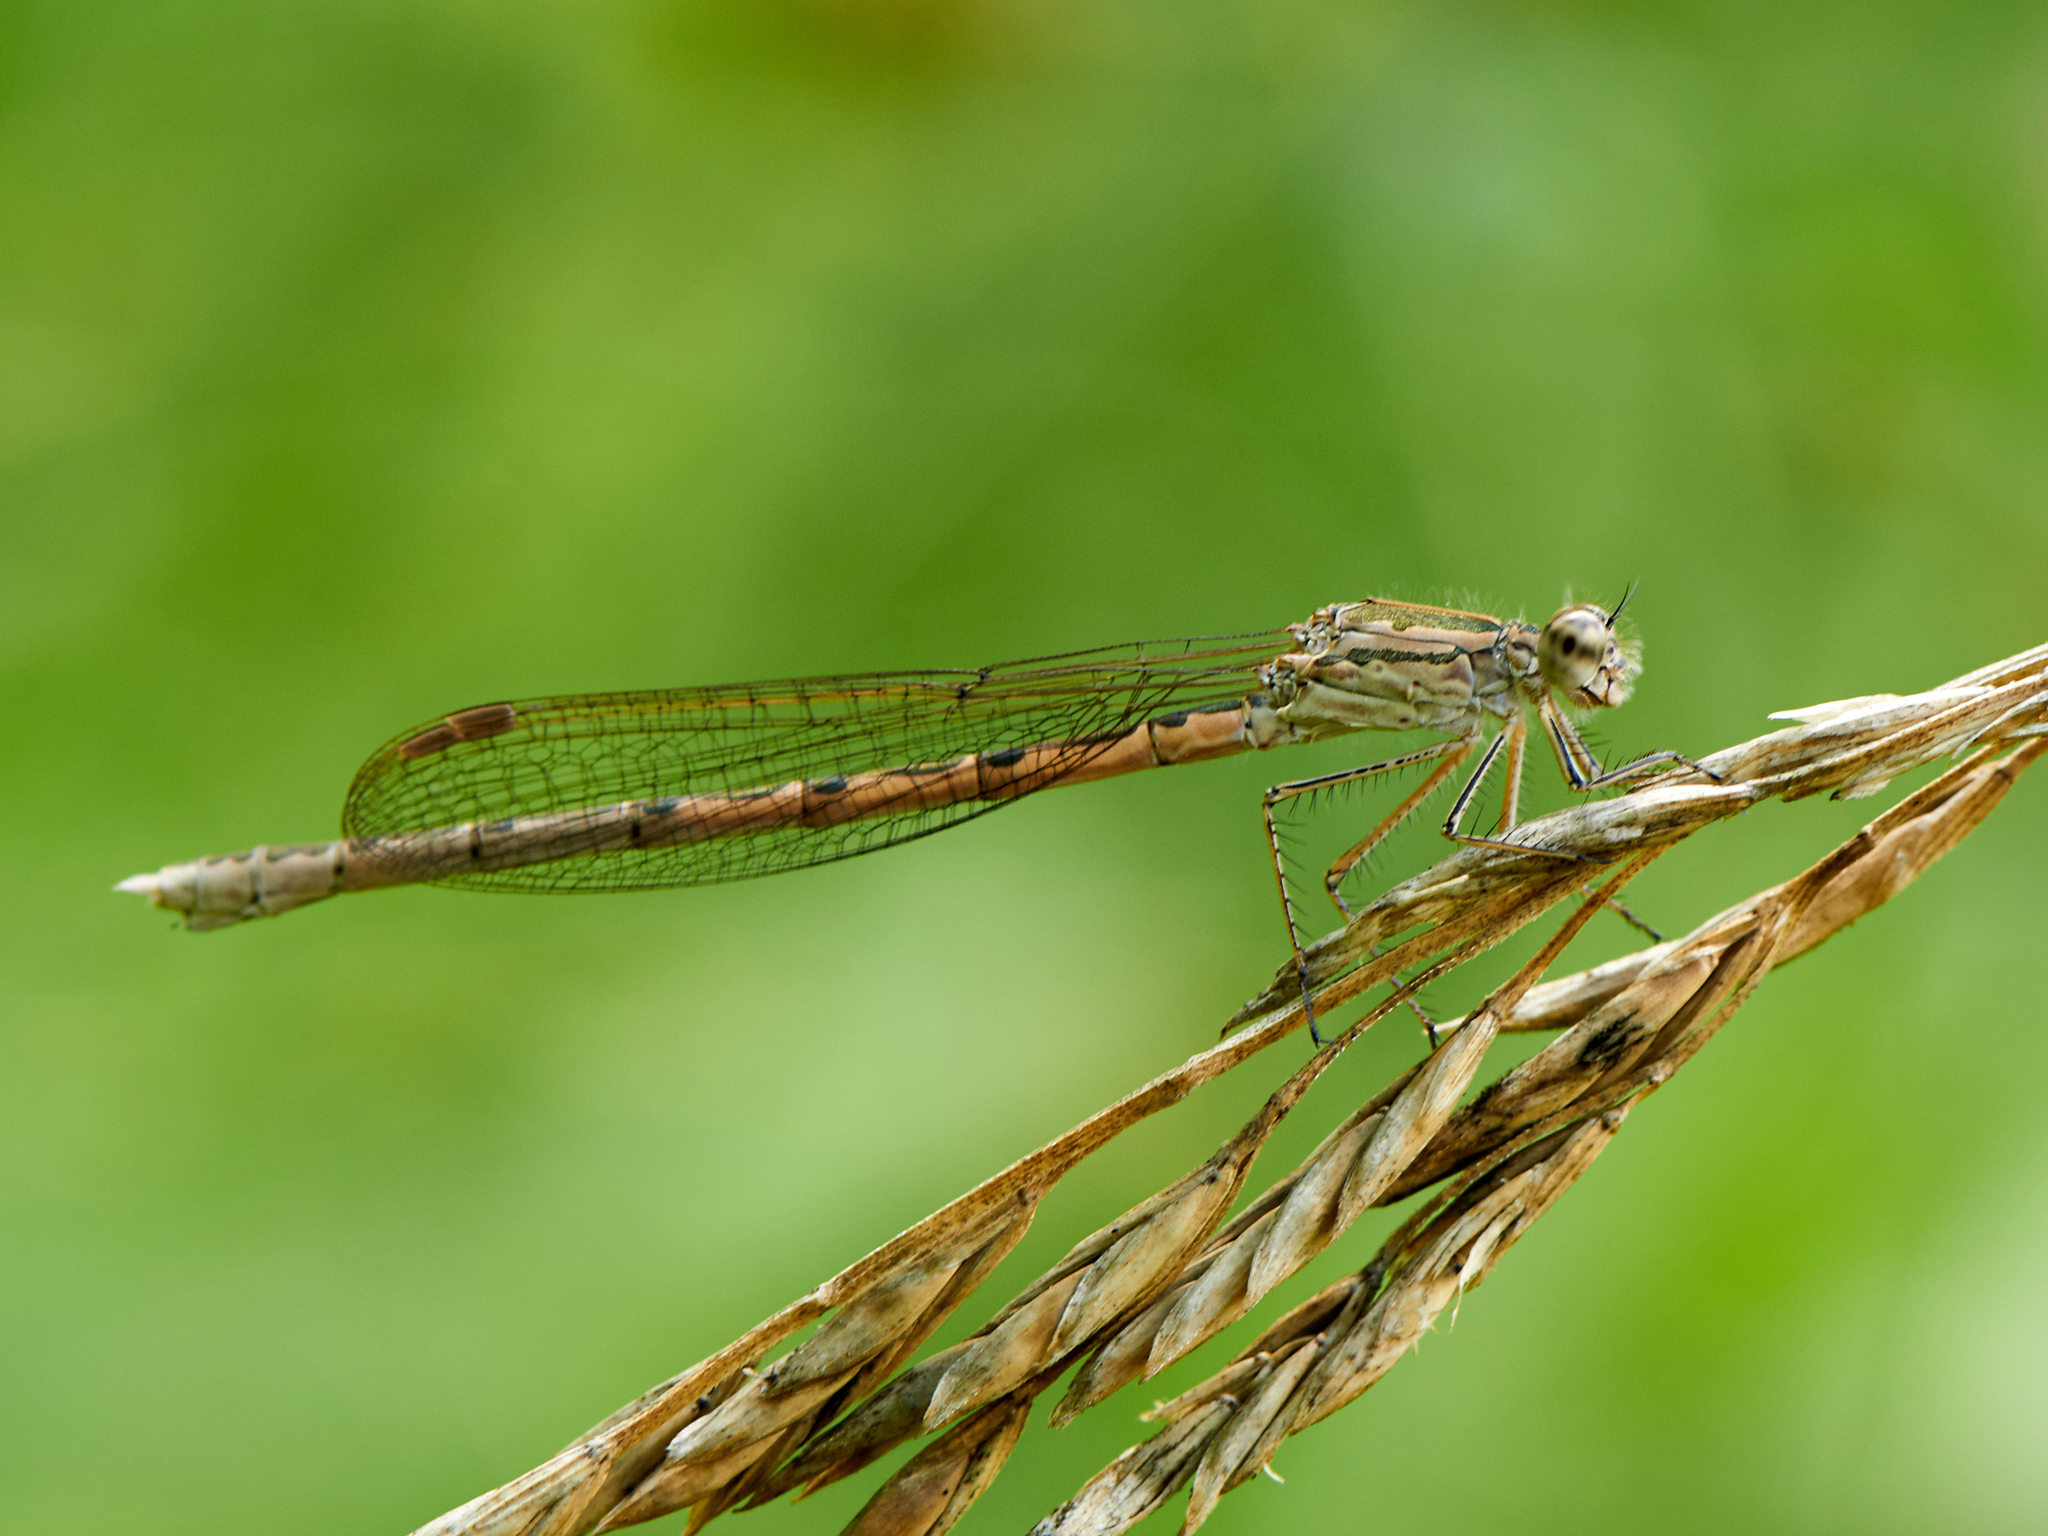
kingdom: Animalia
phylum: Arthropoda
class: Insecta
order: Odonata
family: Lestidae
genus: Sympecma
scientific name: Sympecma paedisca
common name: Siberian winter damsel
